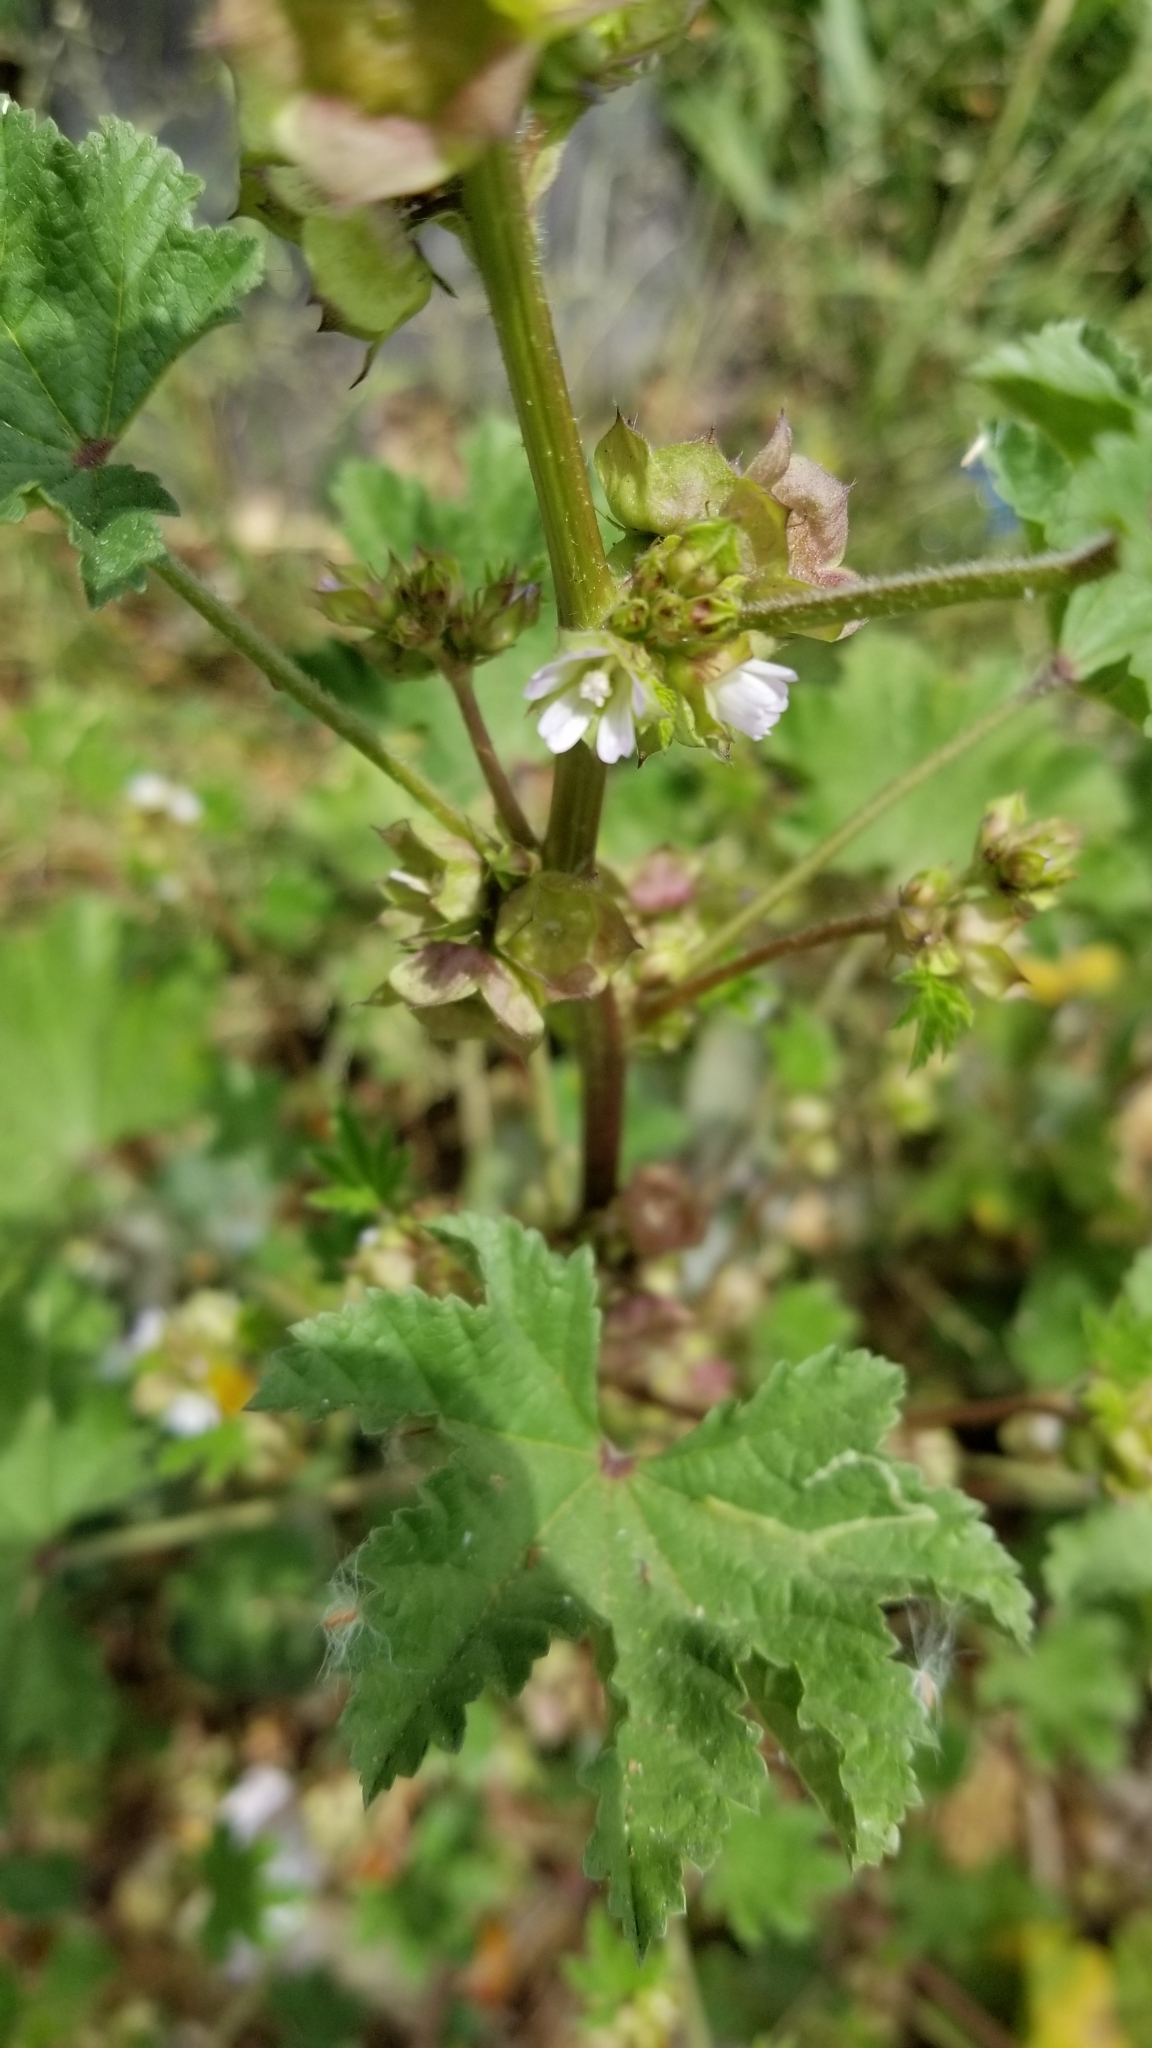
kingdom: Plantae
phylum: Tracheophyta
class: Magnoliopsida
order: Malvales
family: Malvaceae
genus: Malva
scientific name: Malva parviflora
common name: Least mallow
